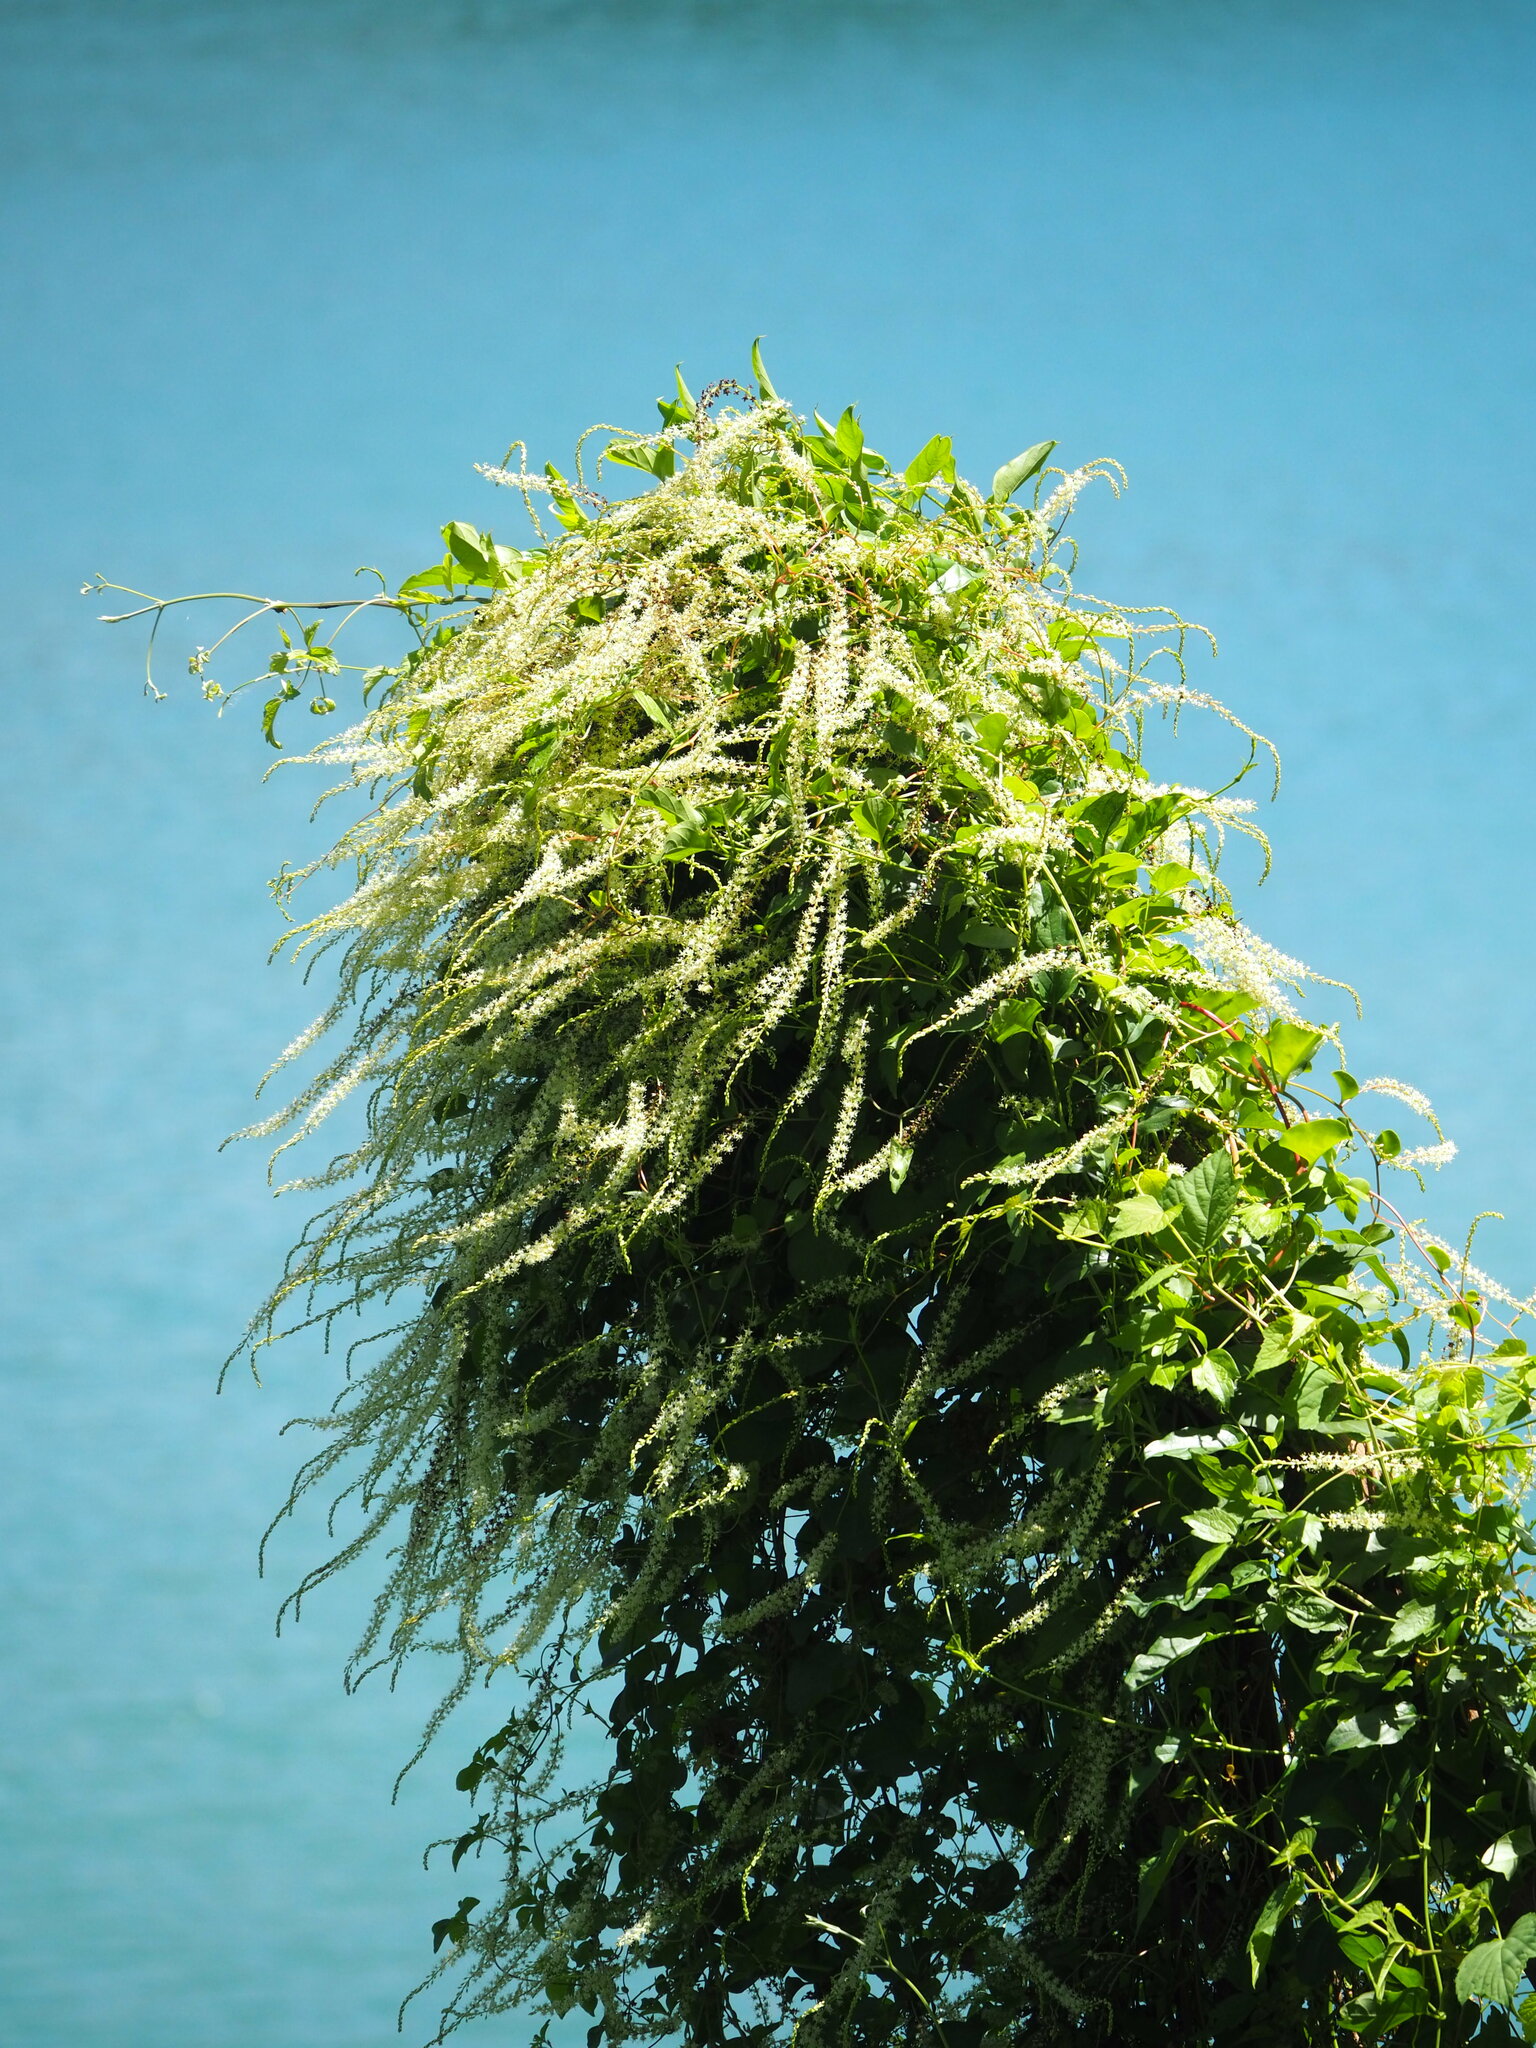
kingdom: Plantae
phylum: Tracheophyta
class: Magnoliopsida
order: Caryophyllales
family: Basellaceae
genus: Anredera
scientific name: Anredera cordifolia
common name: Heartleaf madeiravine
